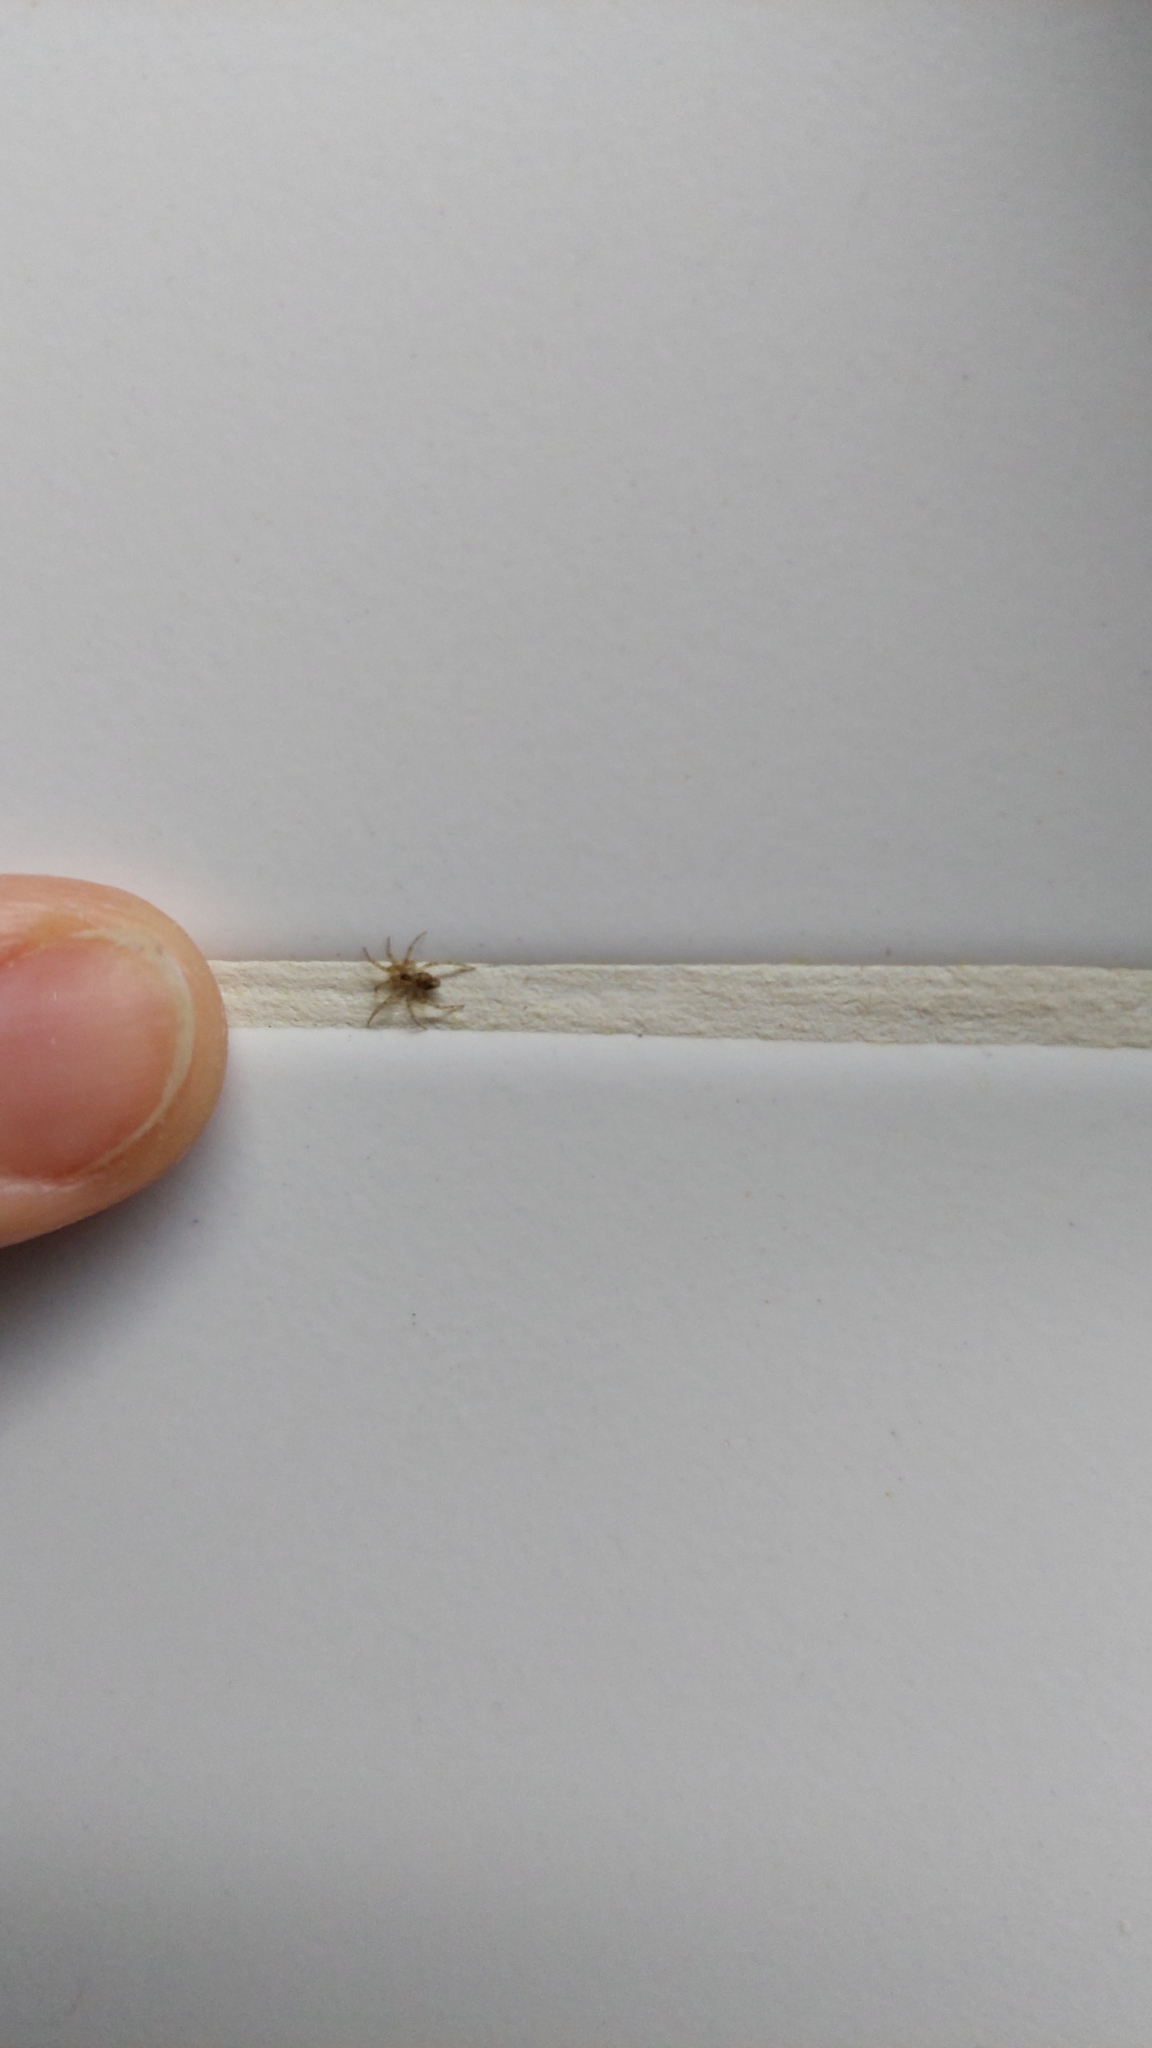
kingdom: Animalia
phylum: Arthropoda
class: Arachnida
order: Araneae
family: Oecobiidae
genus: Oecobius
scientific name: Oecobius navus
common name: Flatmesh weaver
